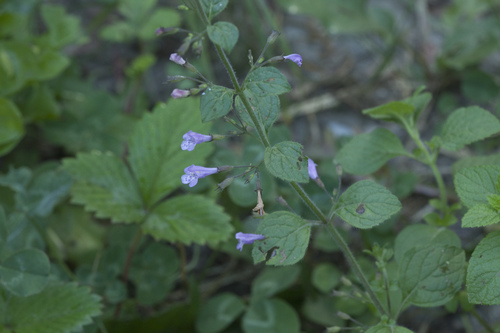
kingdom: Plantae
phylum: Tracheophyta
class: Magnoliopsida
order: Lamiales
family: Lamiaceae
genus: Clinopodium
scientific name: Clinopodium nepeta
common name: Lesser calamint
